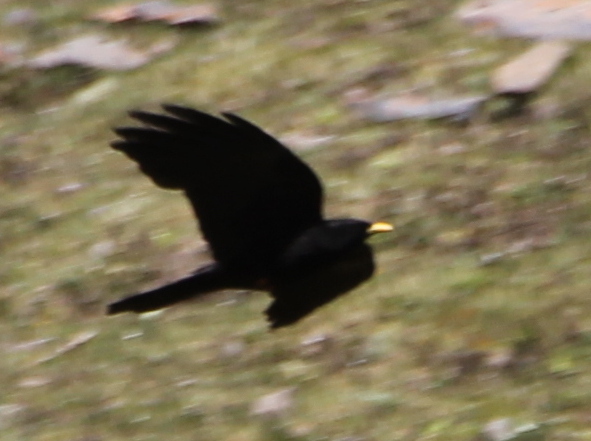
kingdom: Animalia
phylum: Chordata
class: Aves
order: Passeriformes
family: Corvidae
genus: Pyrrhocorax
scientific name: Pyrrhocorax graculus
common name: Alpine chough
